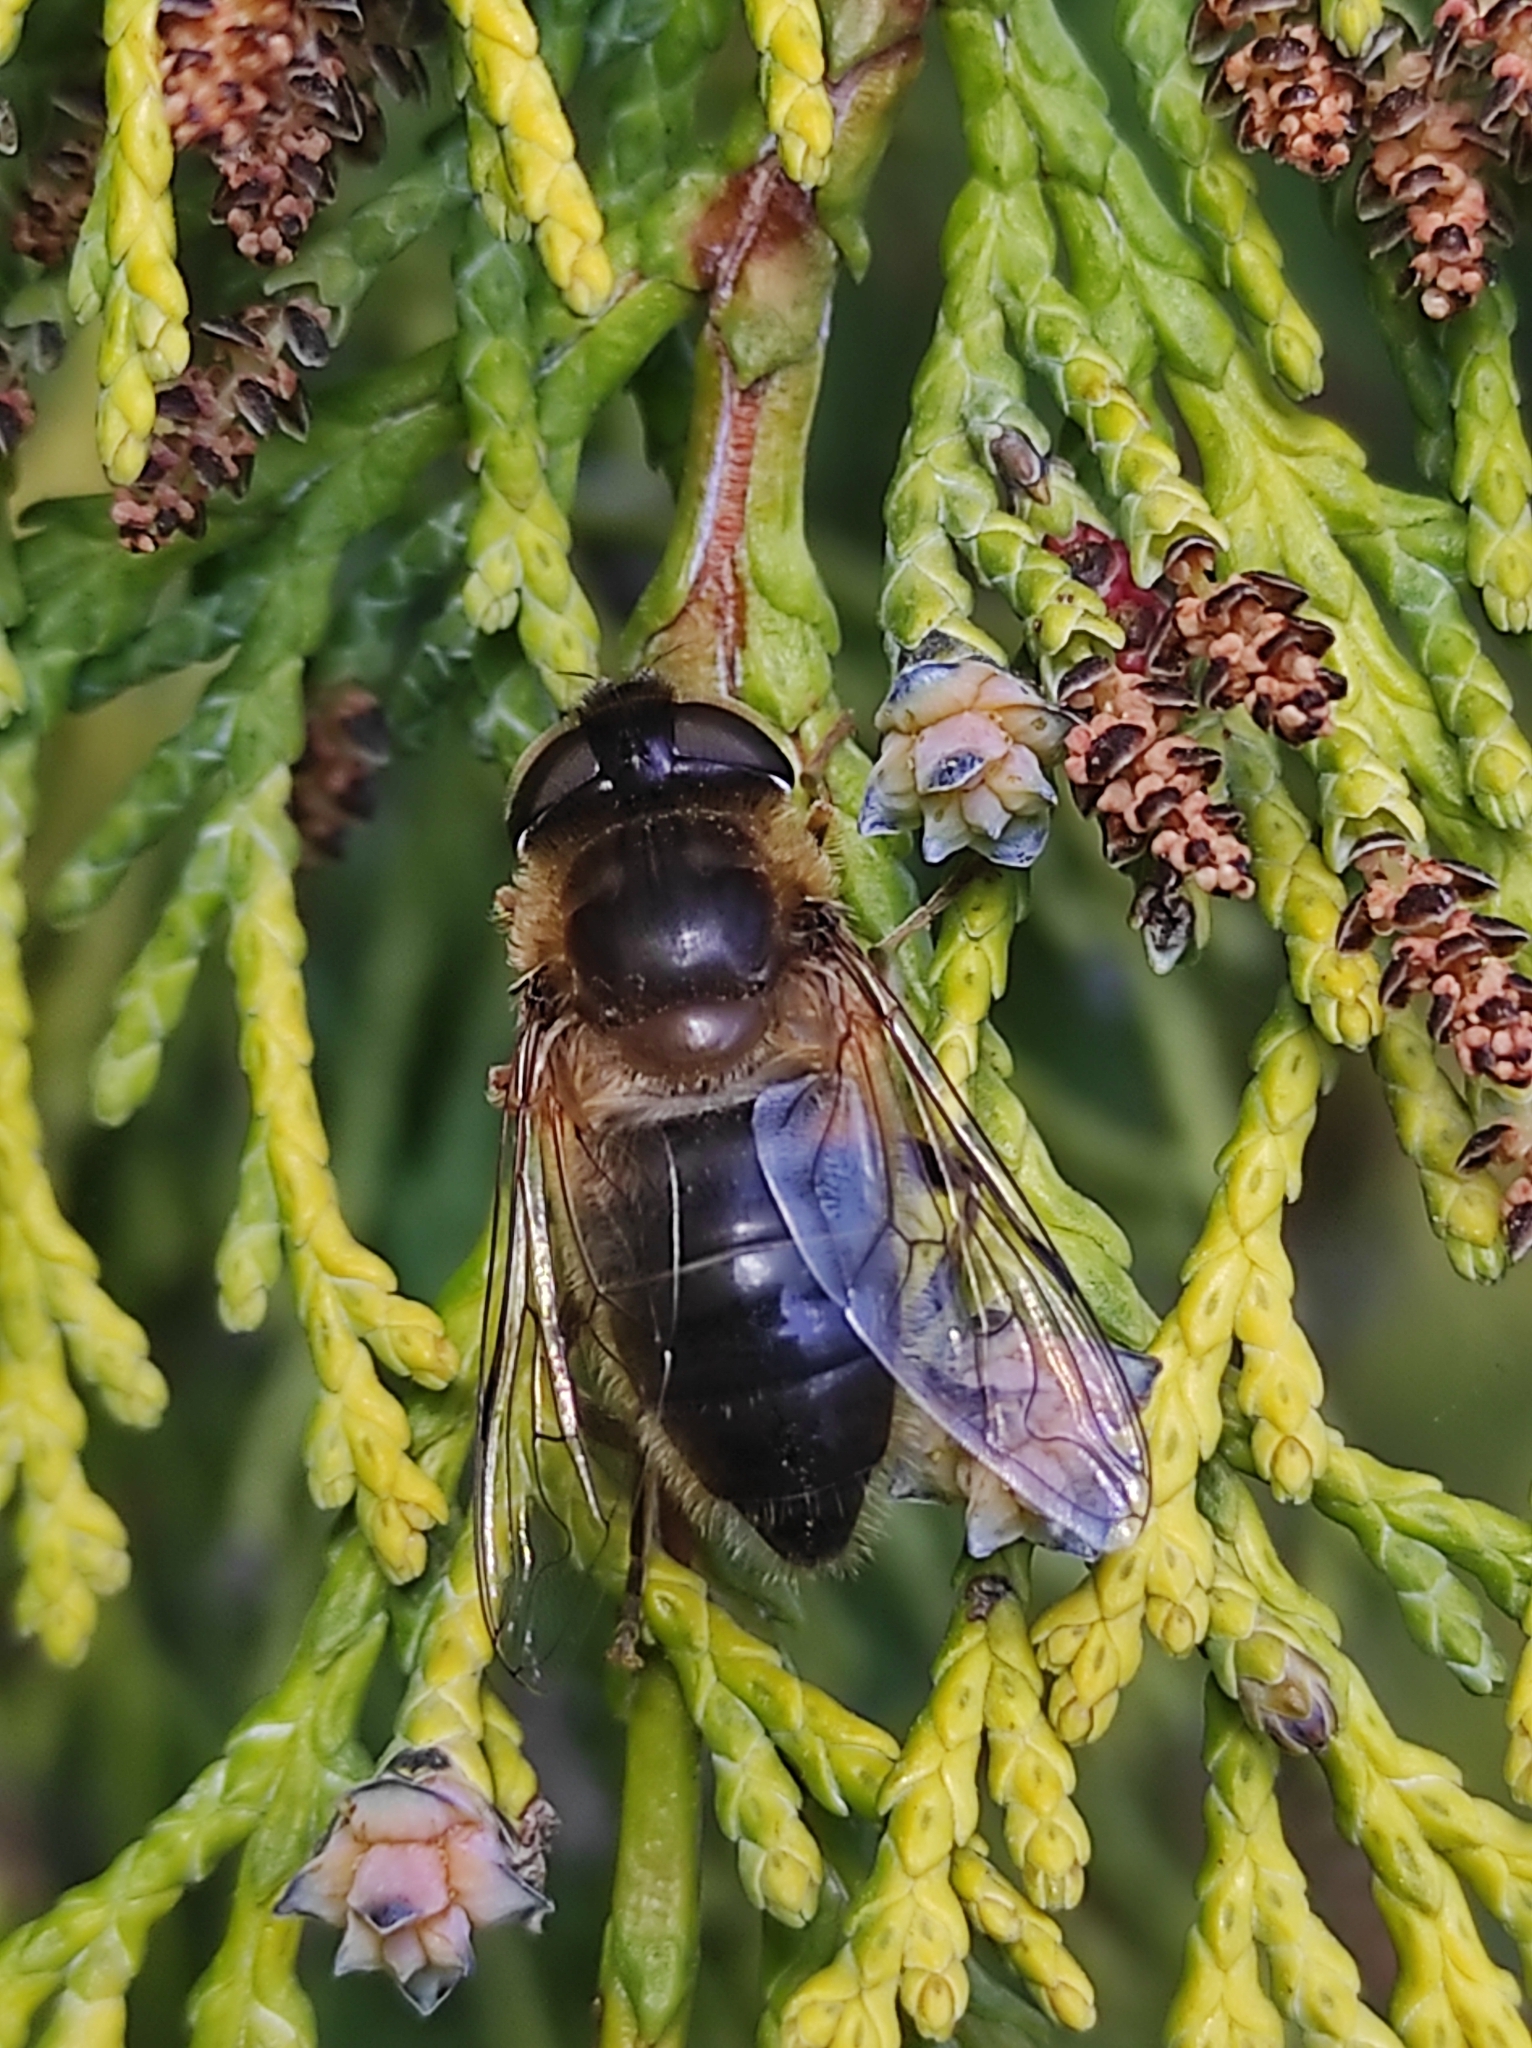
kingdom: Animalia
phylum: Arthropoda
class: Insecta
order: Diptera
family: Syrphidae
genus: Eristalis
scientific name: Eristalis pertinax
